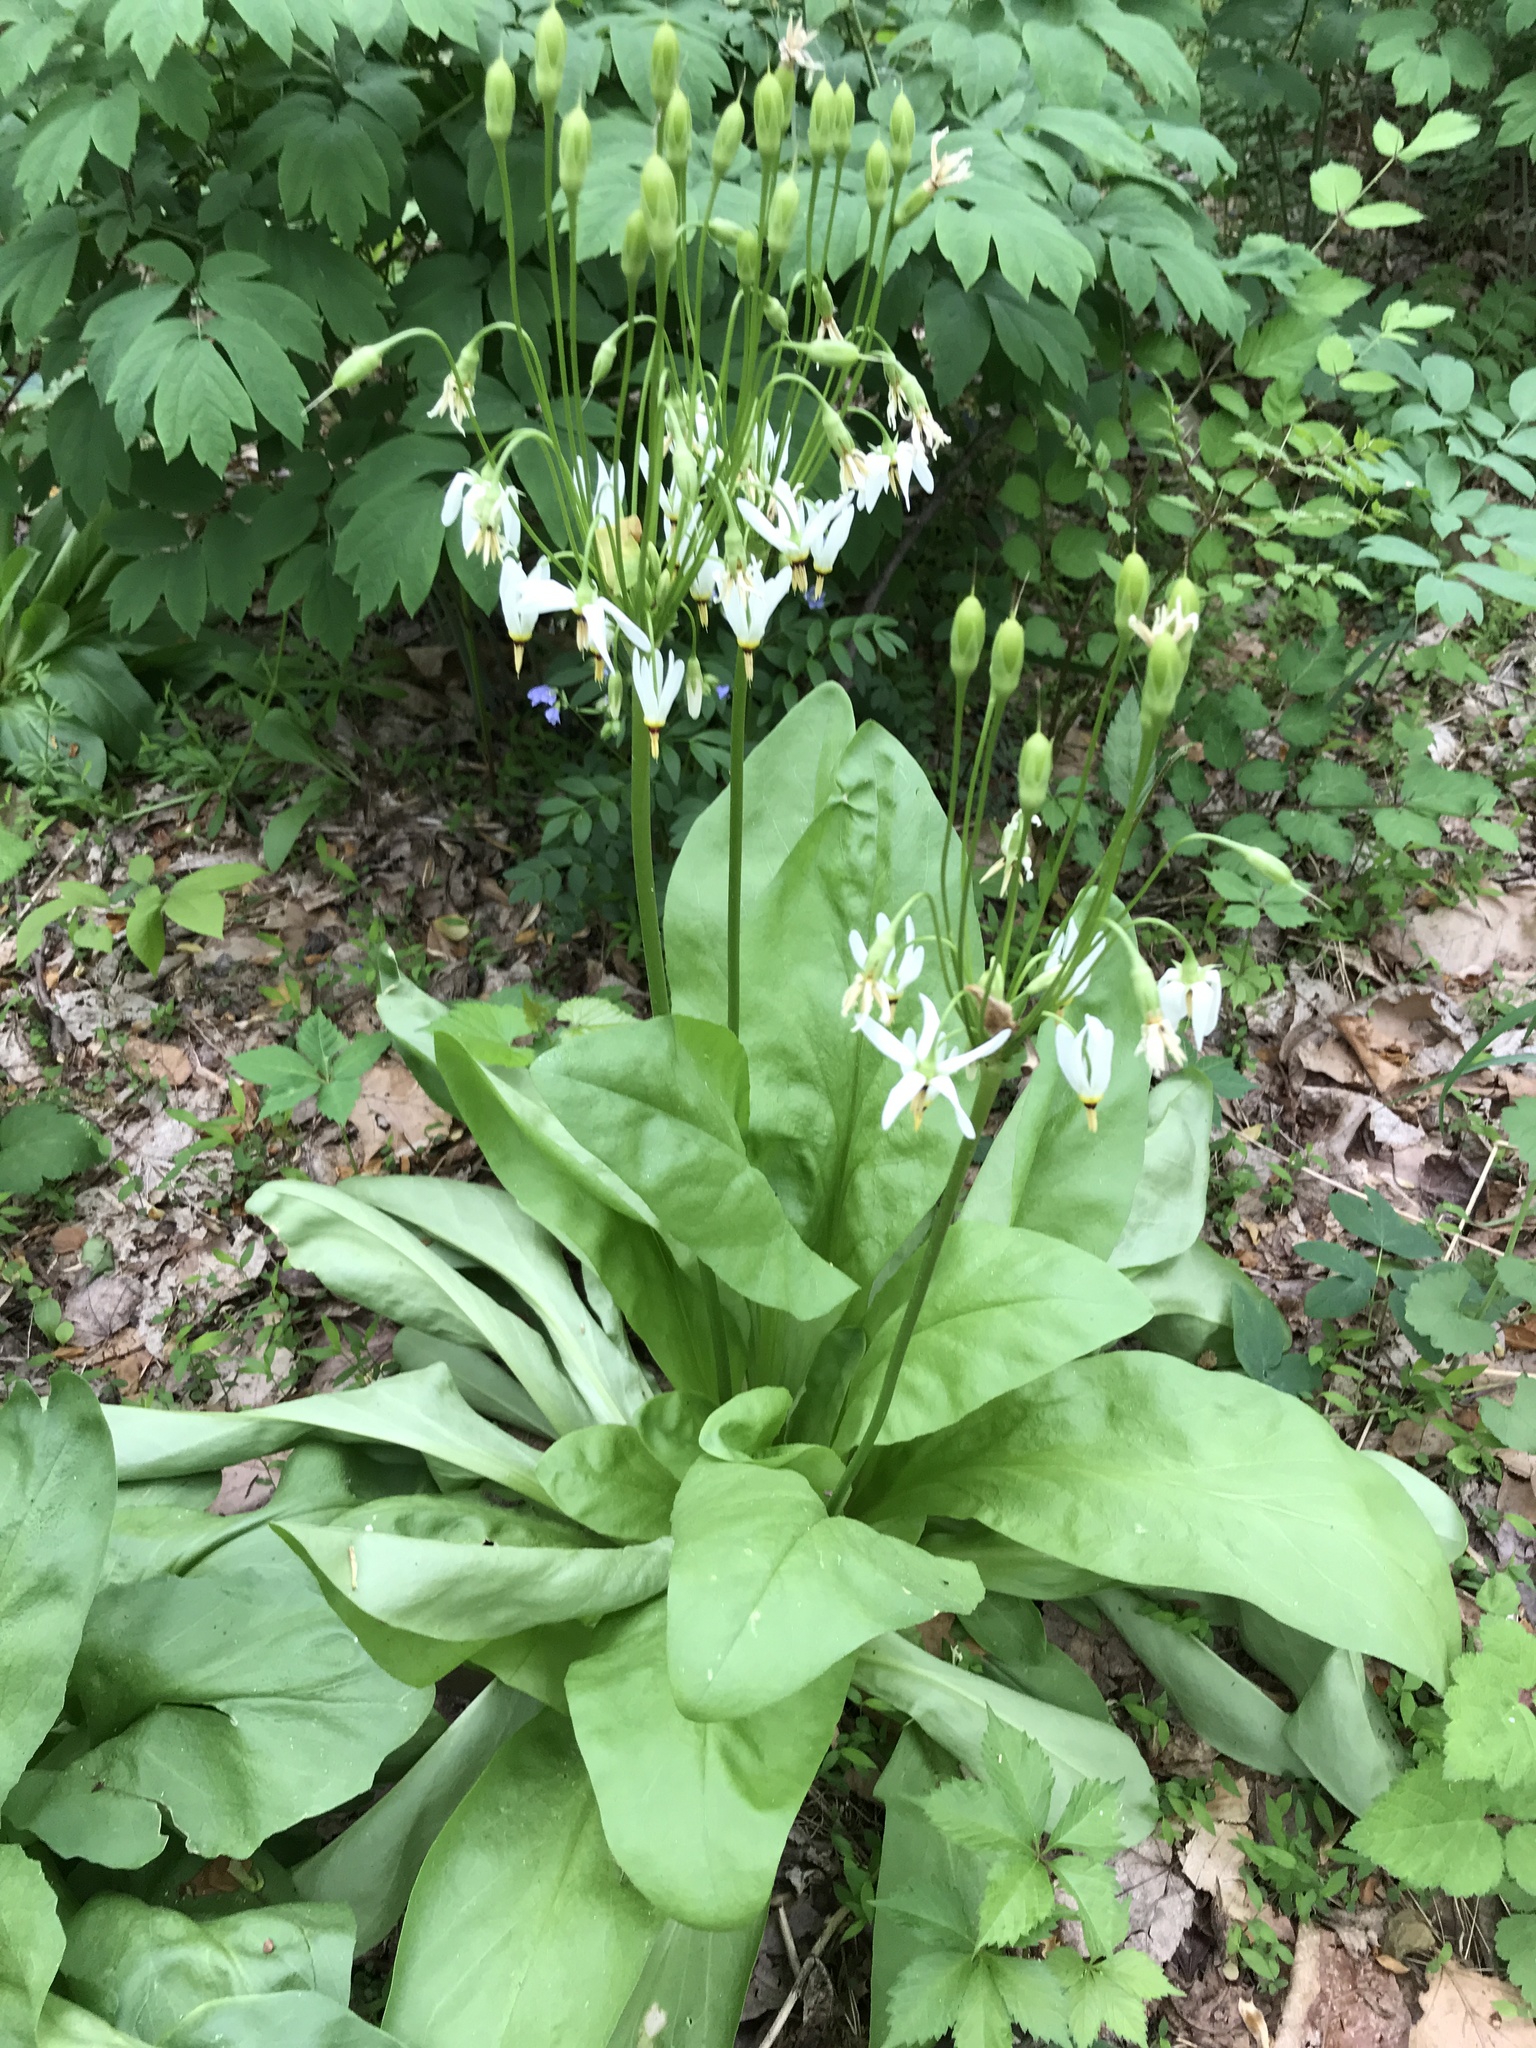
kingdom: Plantae
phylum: Tracheophyta
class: Magnoliopsida
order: Ericales
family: Primulaceae
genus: Dodecatheon
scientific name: Dodecatheon meadia
